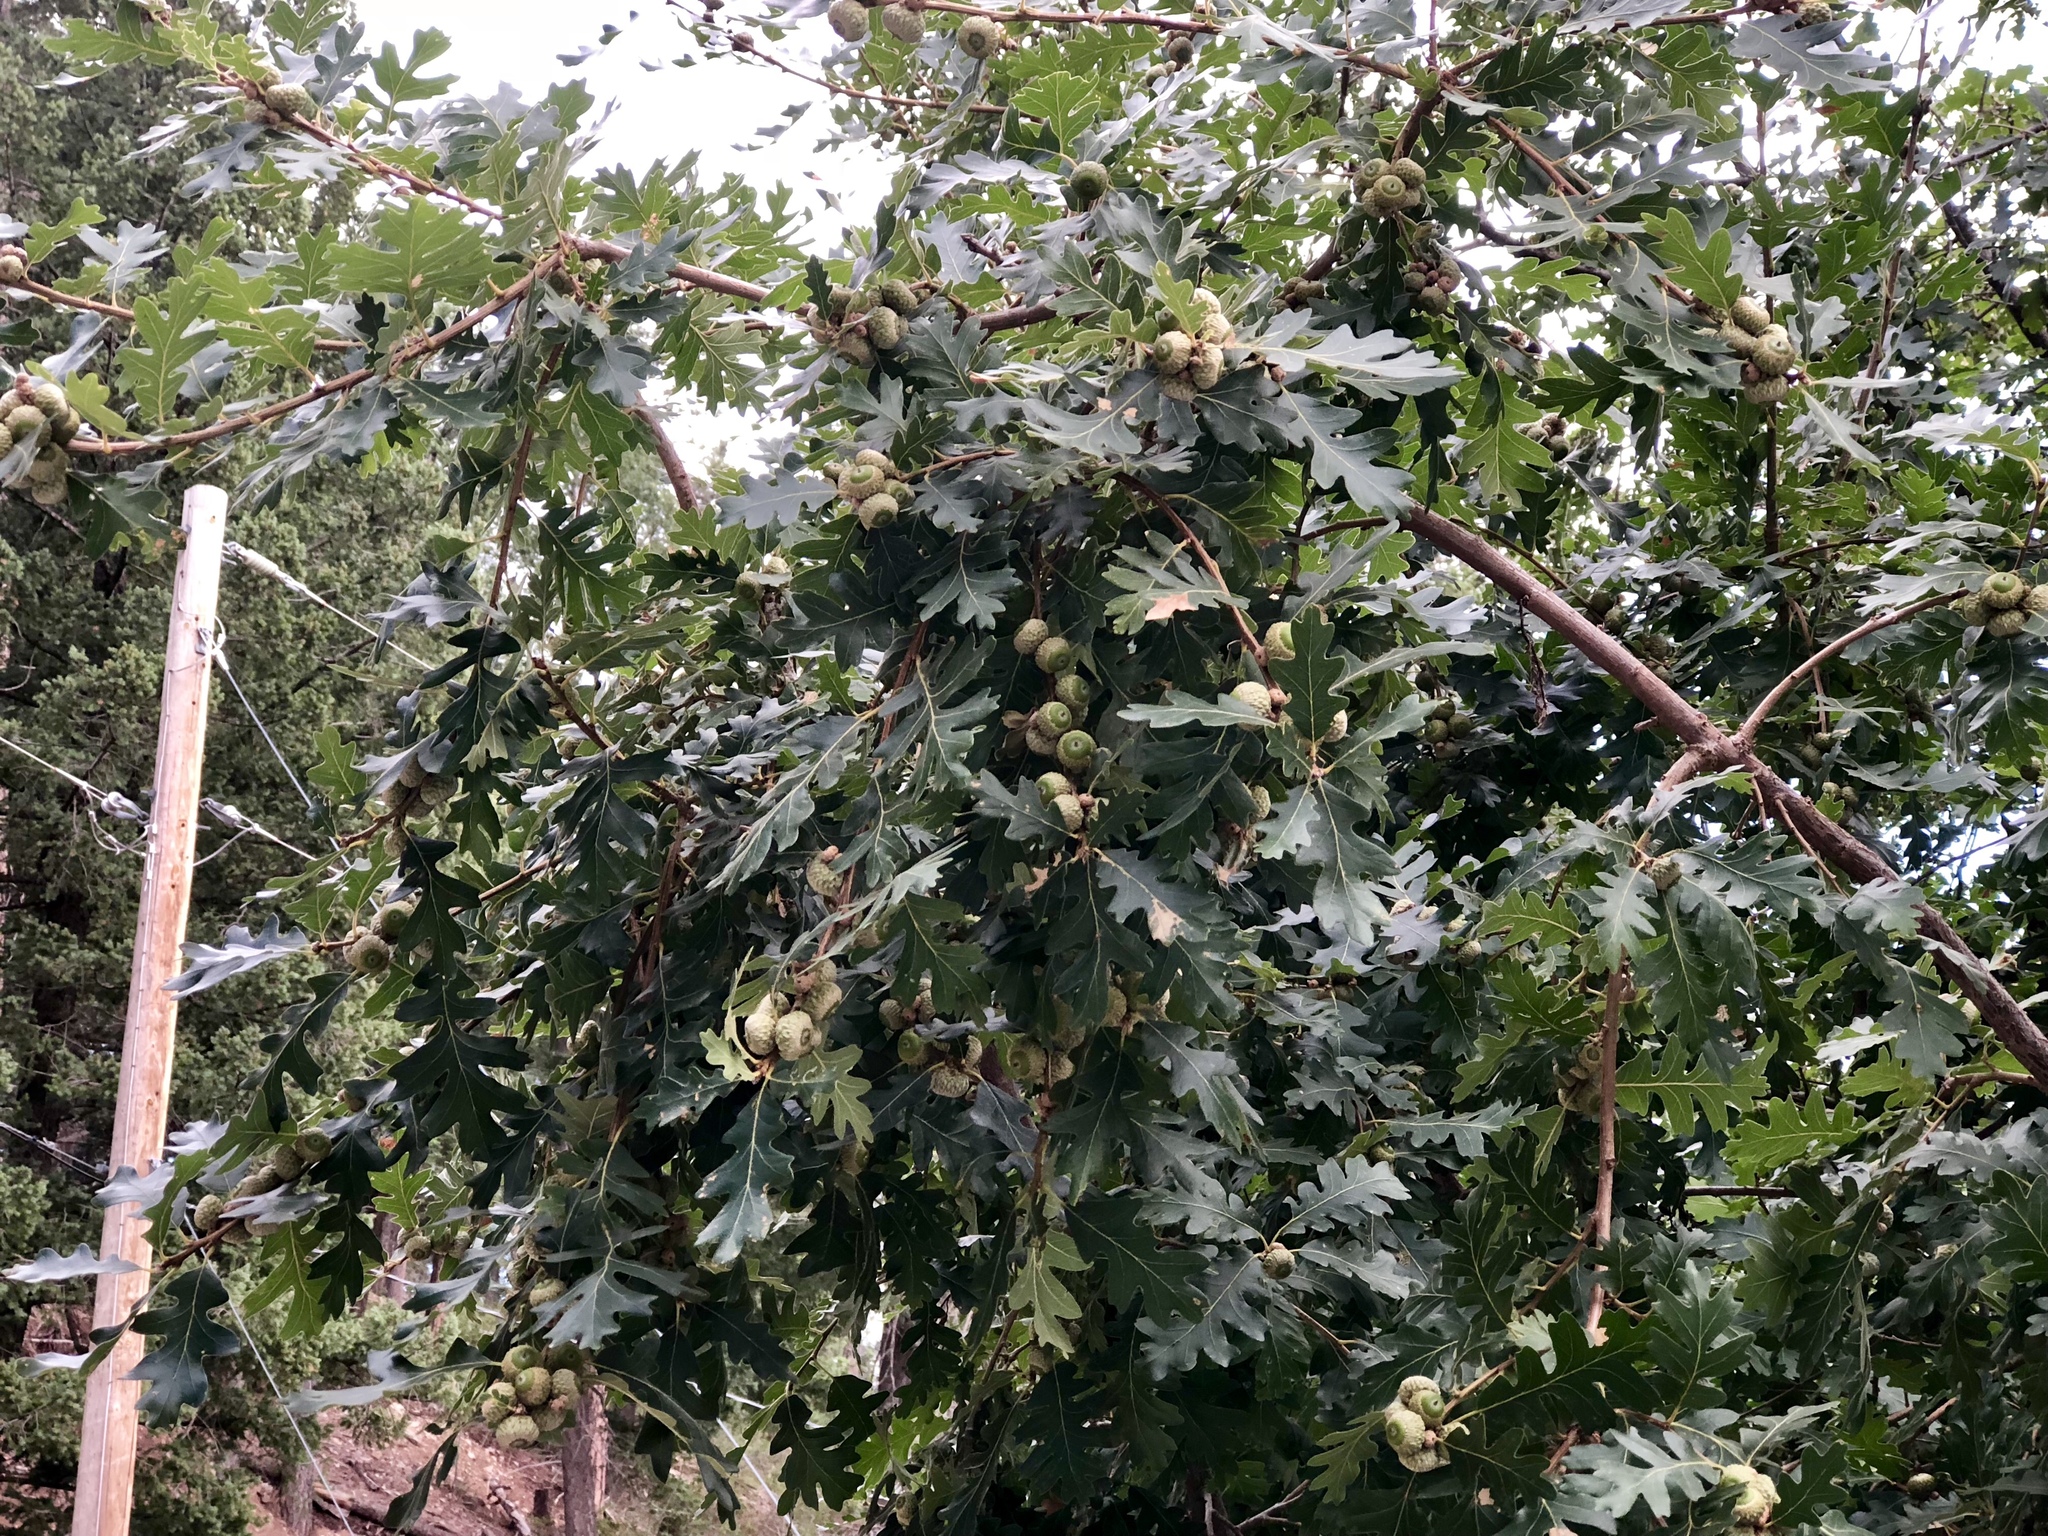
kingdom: Plantae
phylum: Tracheophyta
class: Magnoliopsida
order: Fagales
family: Fagaceae
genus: Quercus
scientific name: Quercus gambelii
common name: Gambel oak
